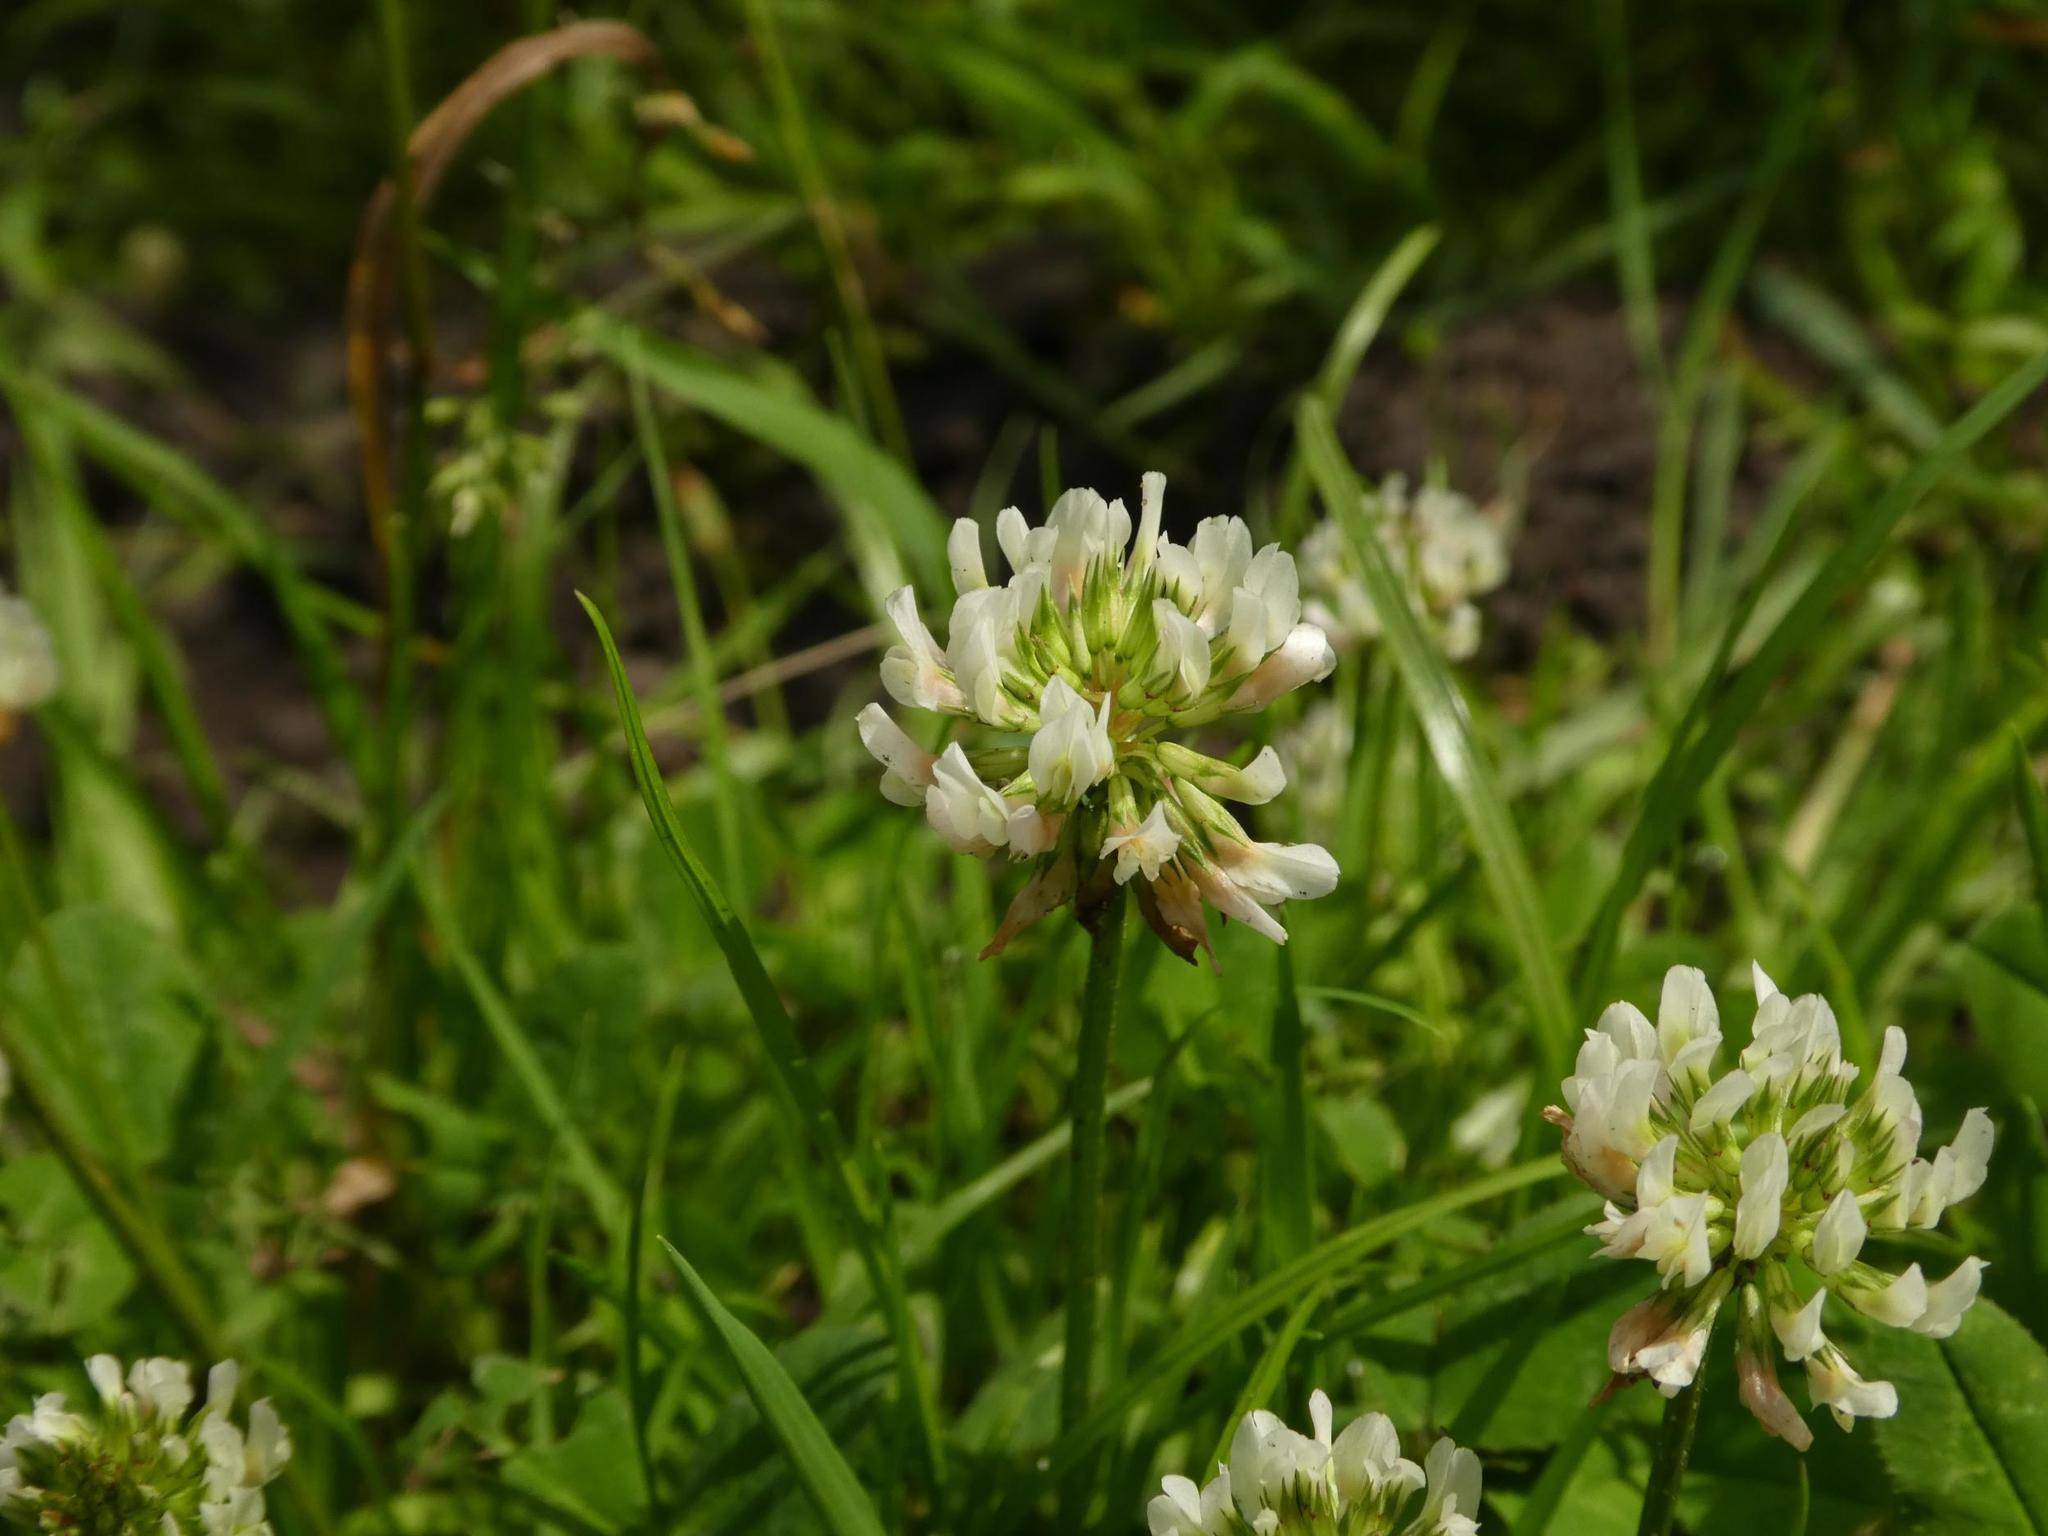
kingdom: Plantae
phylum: Tracheophyta
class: Magnoliopsida
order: Fabales
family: Fabaceae
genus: Trifolium
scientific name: Trifolium repens
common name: White clover
